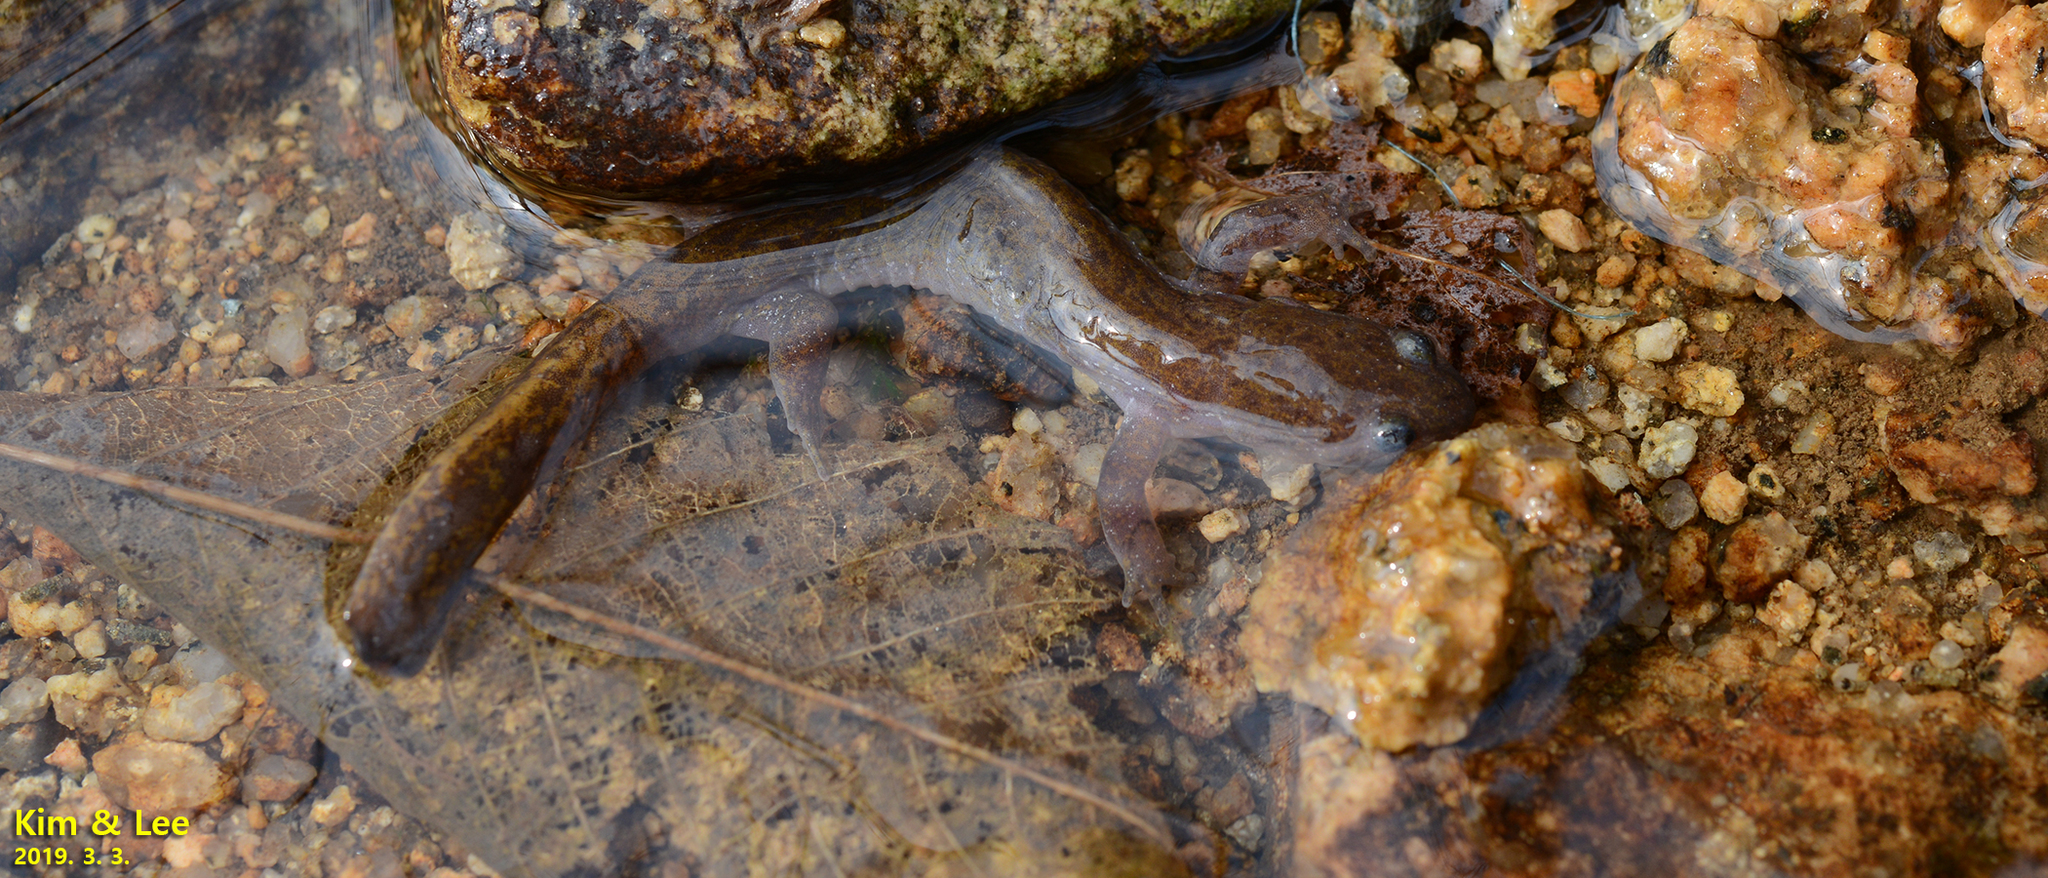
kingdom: Animalia
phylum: Chordata
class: Amphibia
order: Caudata
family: Hynobiidae
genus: Hynobius
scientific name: Hynobius geojeensis
